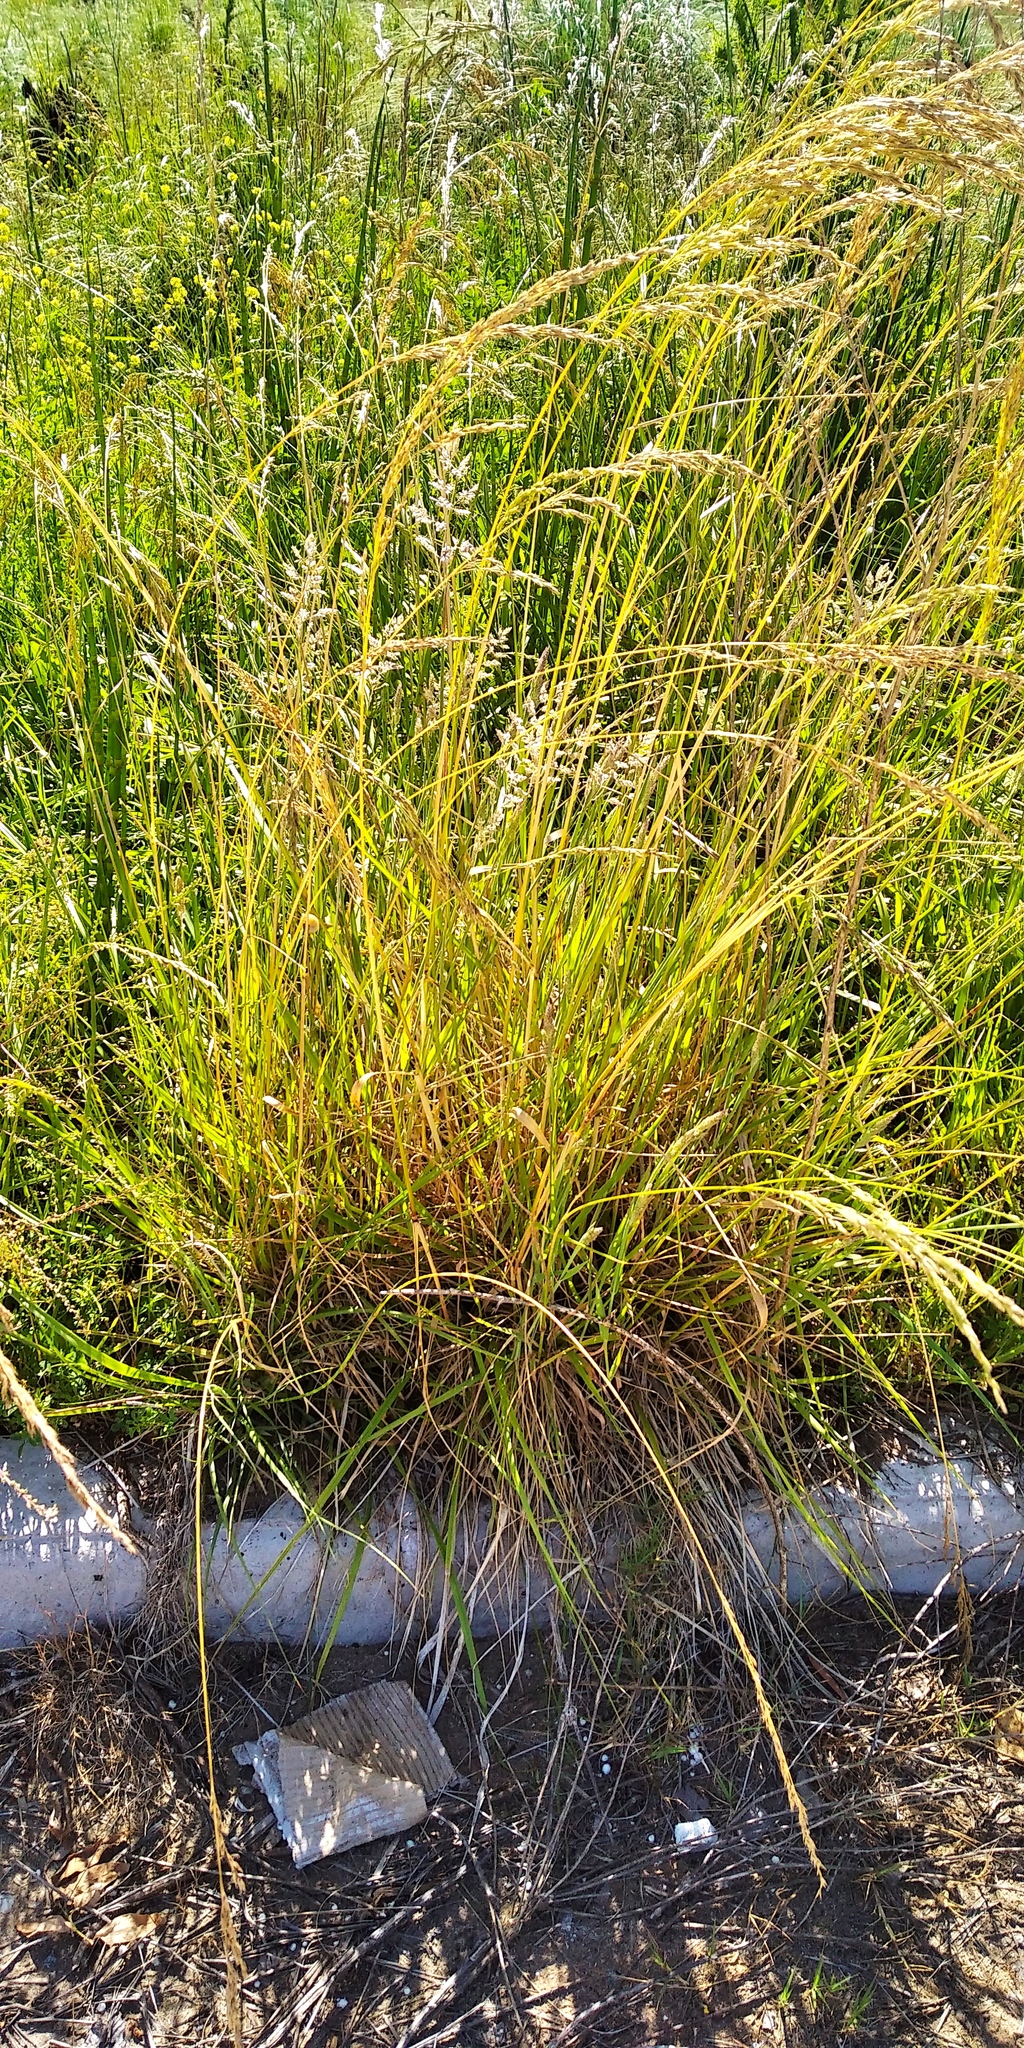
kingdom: Plantae
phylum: Tracheophyta
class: Liliopsida
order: Poales
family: Poaceae
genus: Lolium
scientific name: Lolium arundinaceum
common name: Reed fescue
